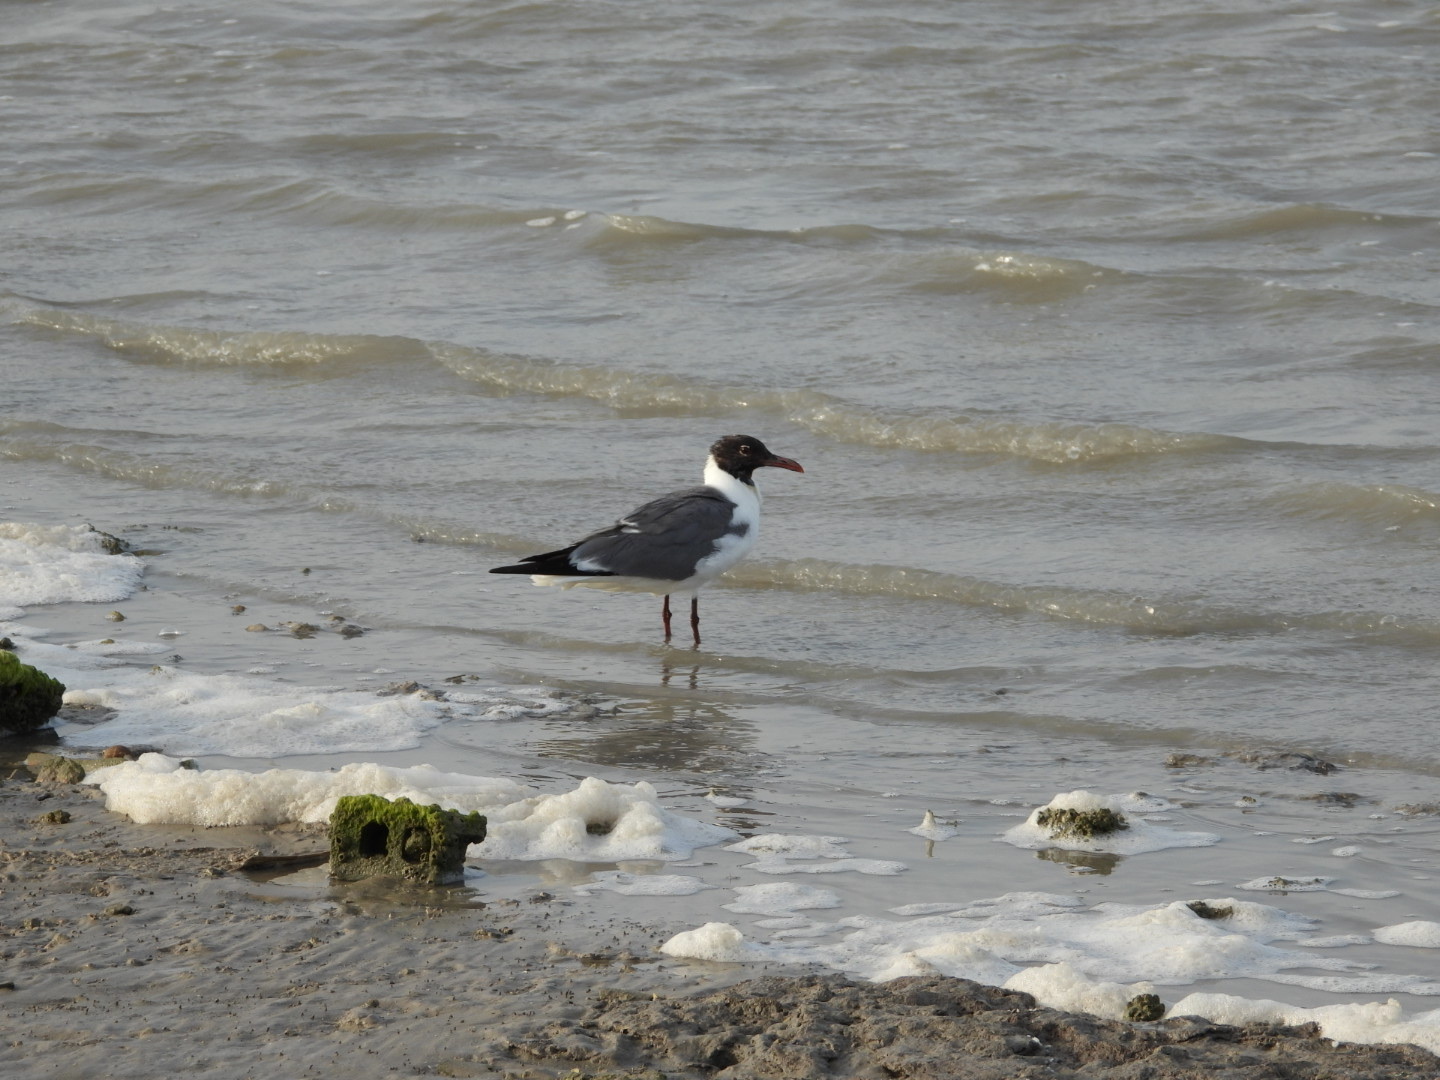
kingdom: Animalia
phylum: Chordata
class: Aves
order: Charadriiformes
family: Laridae
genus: Leucophaeus
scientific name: Leucophaeus atricilla
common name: Laughing gull
